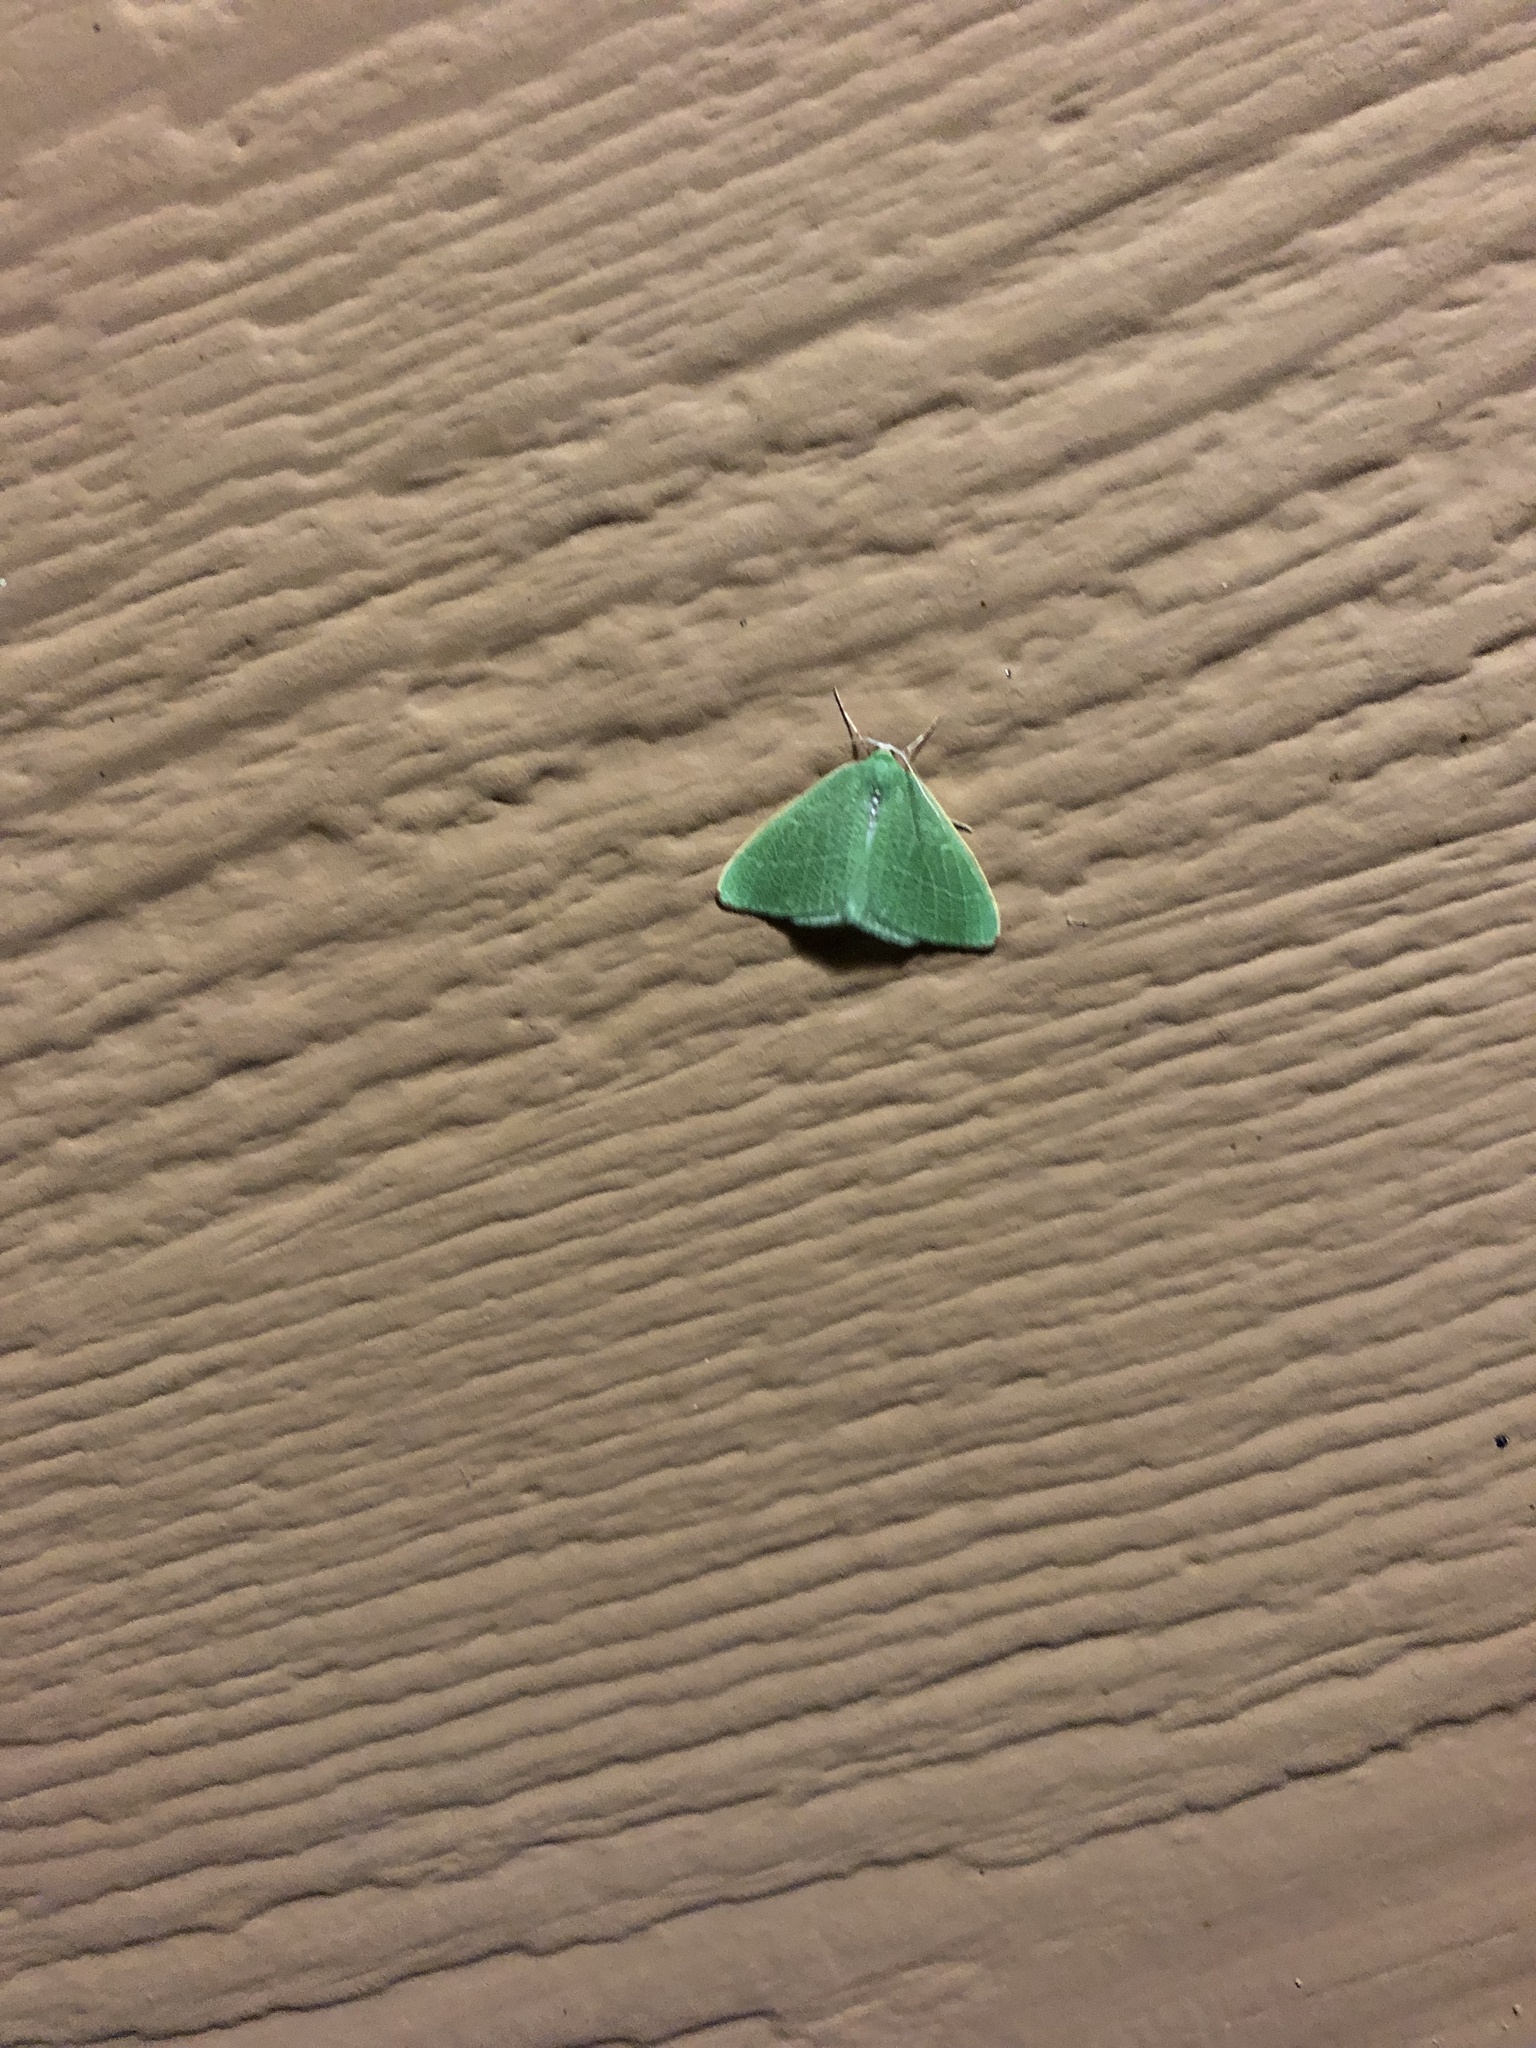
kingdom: Animalia
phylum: Arthropoda
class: Insecta
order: Lepidoptera
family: Geometridae
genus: Nemoria
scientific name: Nemoria pulcherrima
